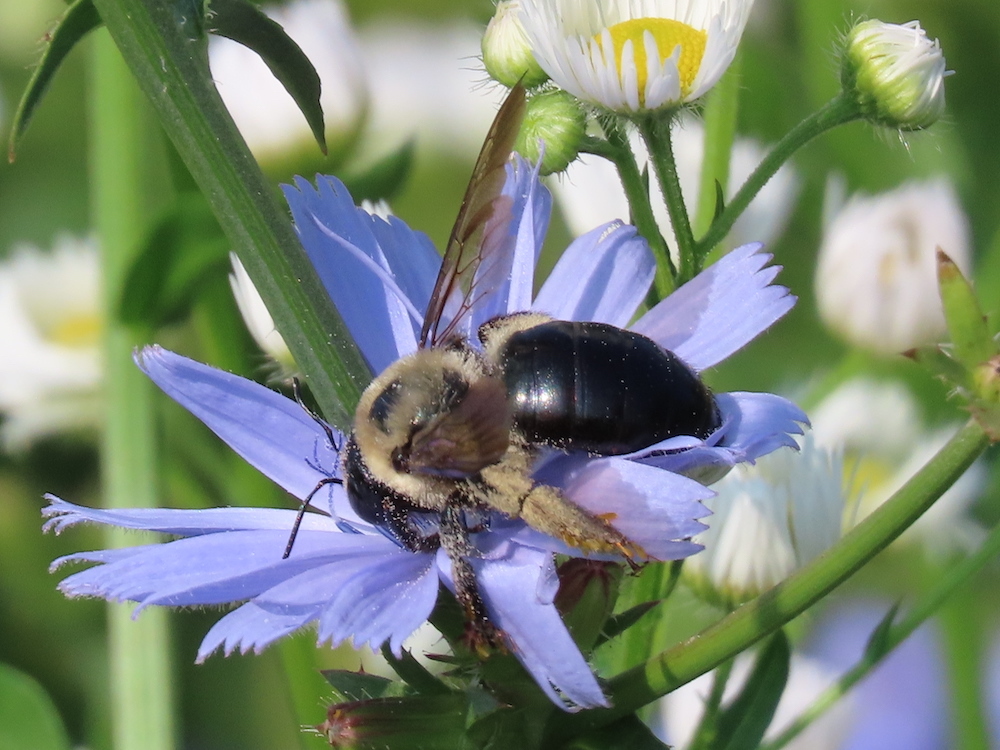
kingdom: Animalia
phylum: Arthropoda
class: Insecta
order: Hymenoptera
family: Apidae
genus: Xylocopa
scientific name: Xylocopa virginica
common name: Carpenter bee
